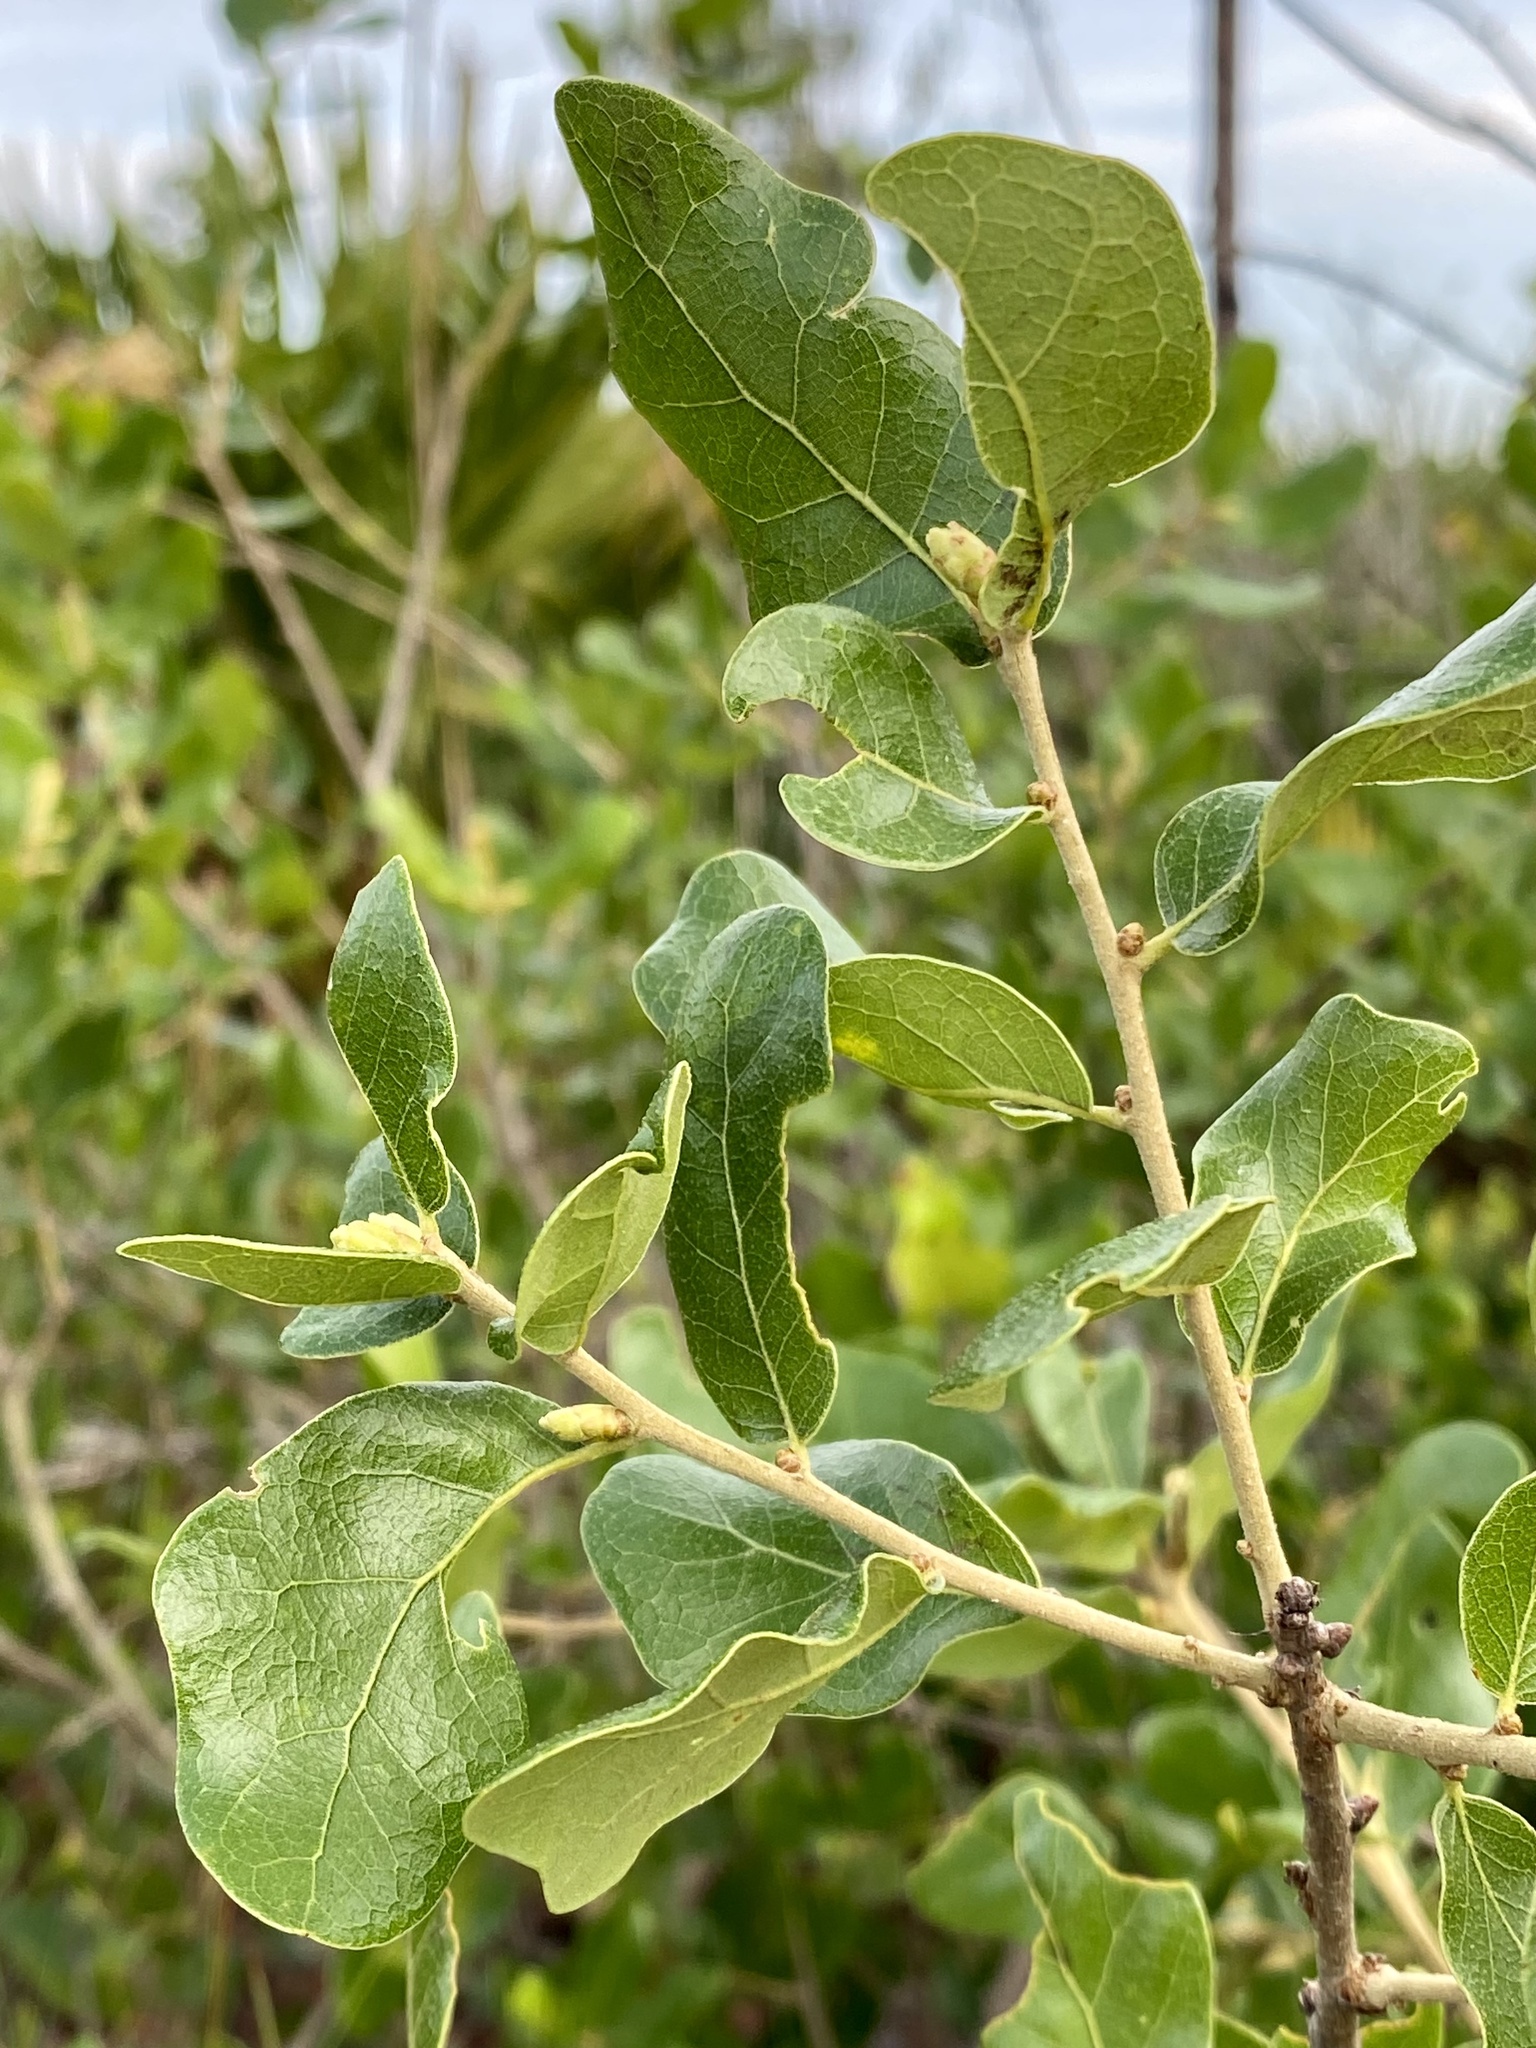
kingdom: Plantae
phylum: Tracheophyta
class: Magnoliopsida
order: Fagales
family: Fagaceae
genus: Quercus
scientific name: Quercus chapmanii
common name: Chapman oak
